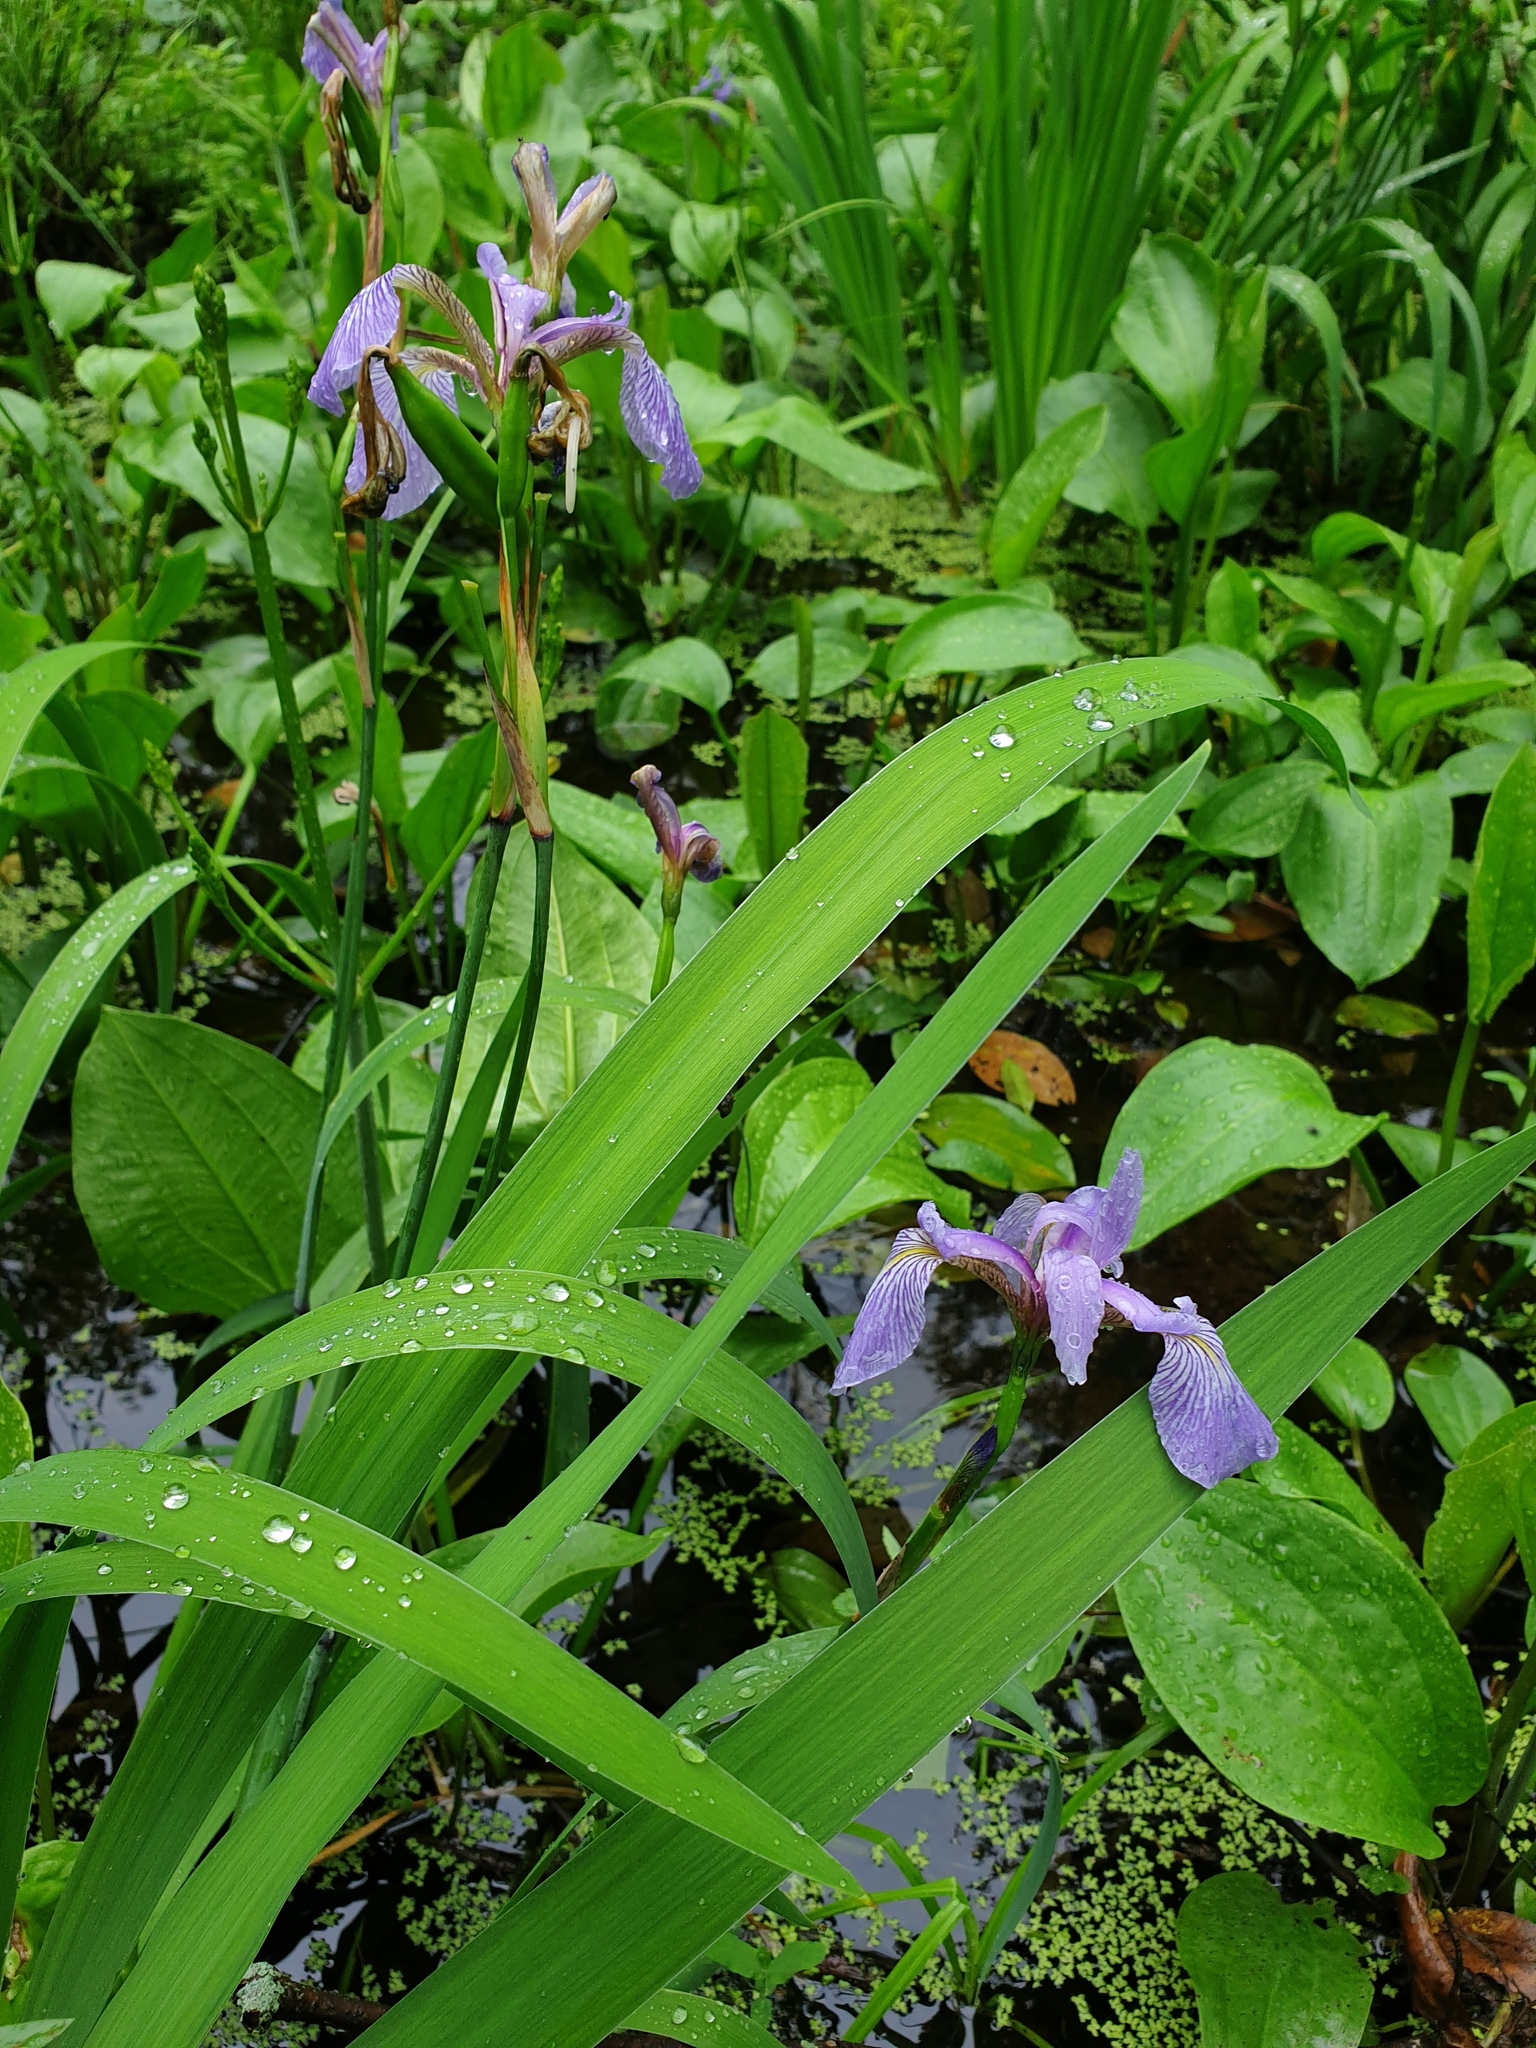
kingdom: Plantae
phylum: Tracheophyta
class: Liliopsida
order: Asparagales
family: Iridaceae
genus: Iris
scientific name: Iris versicolor
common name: Purple iris
